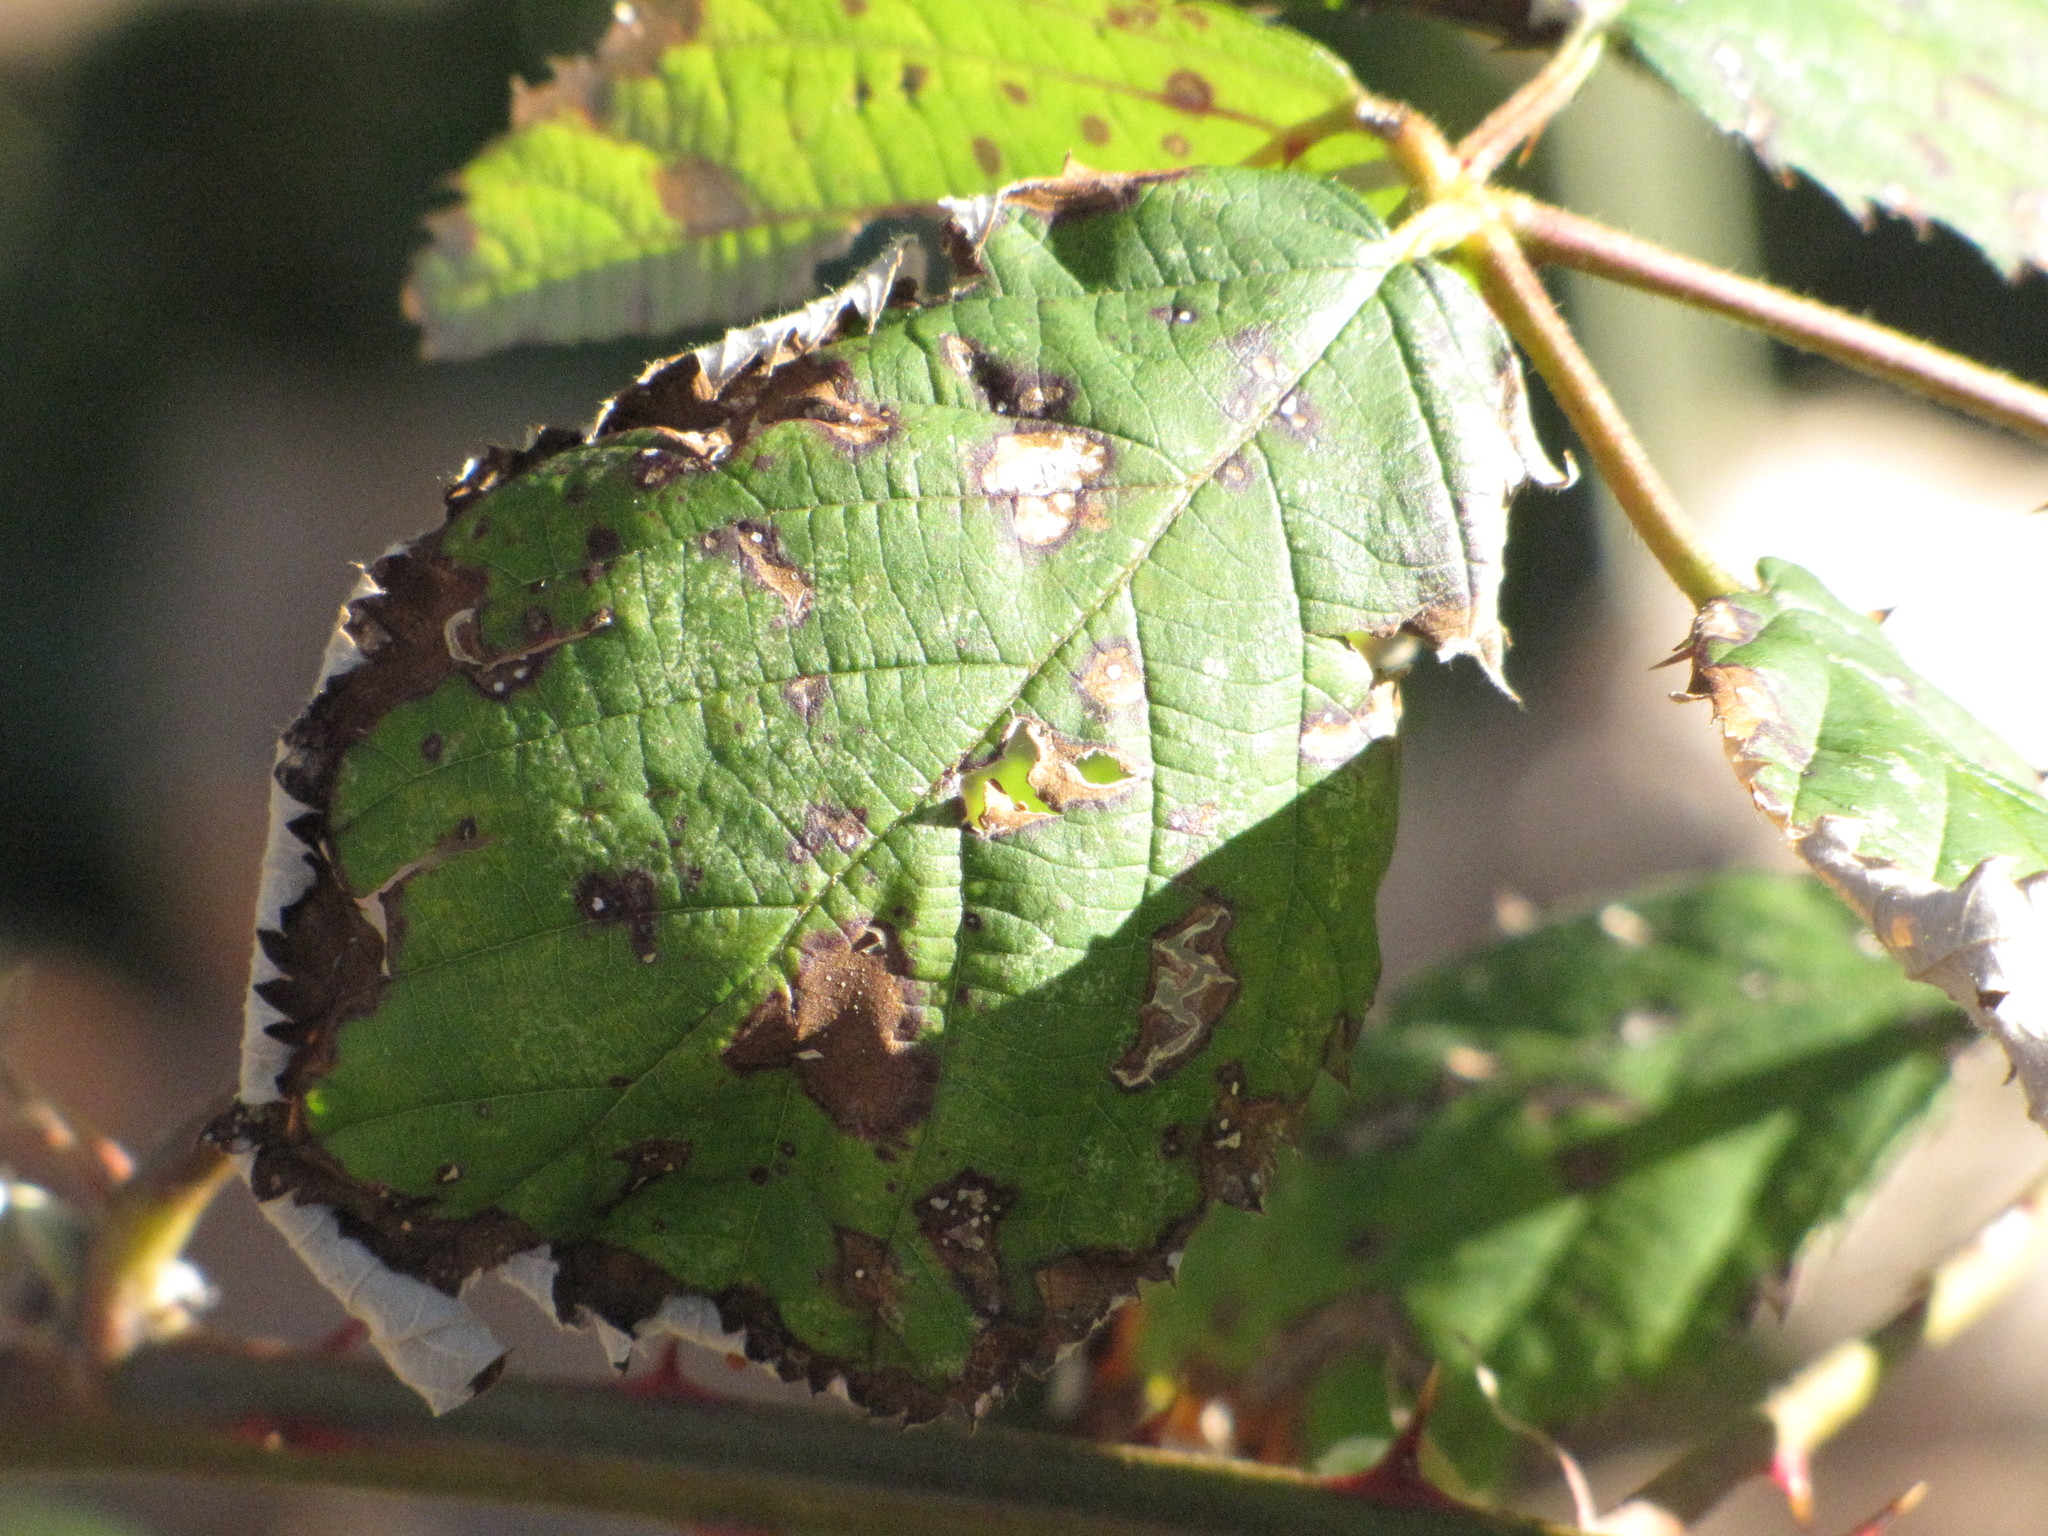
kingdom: Plantae
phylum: Tracheophyta
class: Magnoliopsida
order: Rosales
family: Rosaceae
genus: Rubus
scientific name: Rubus armeniacus
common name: Himalayan blackberry
